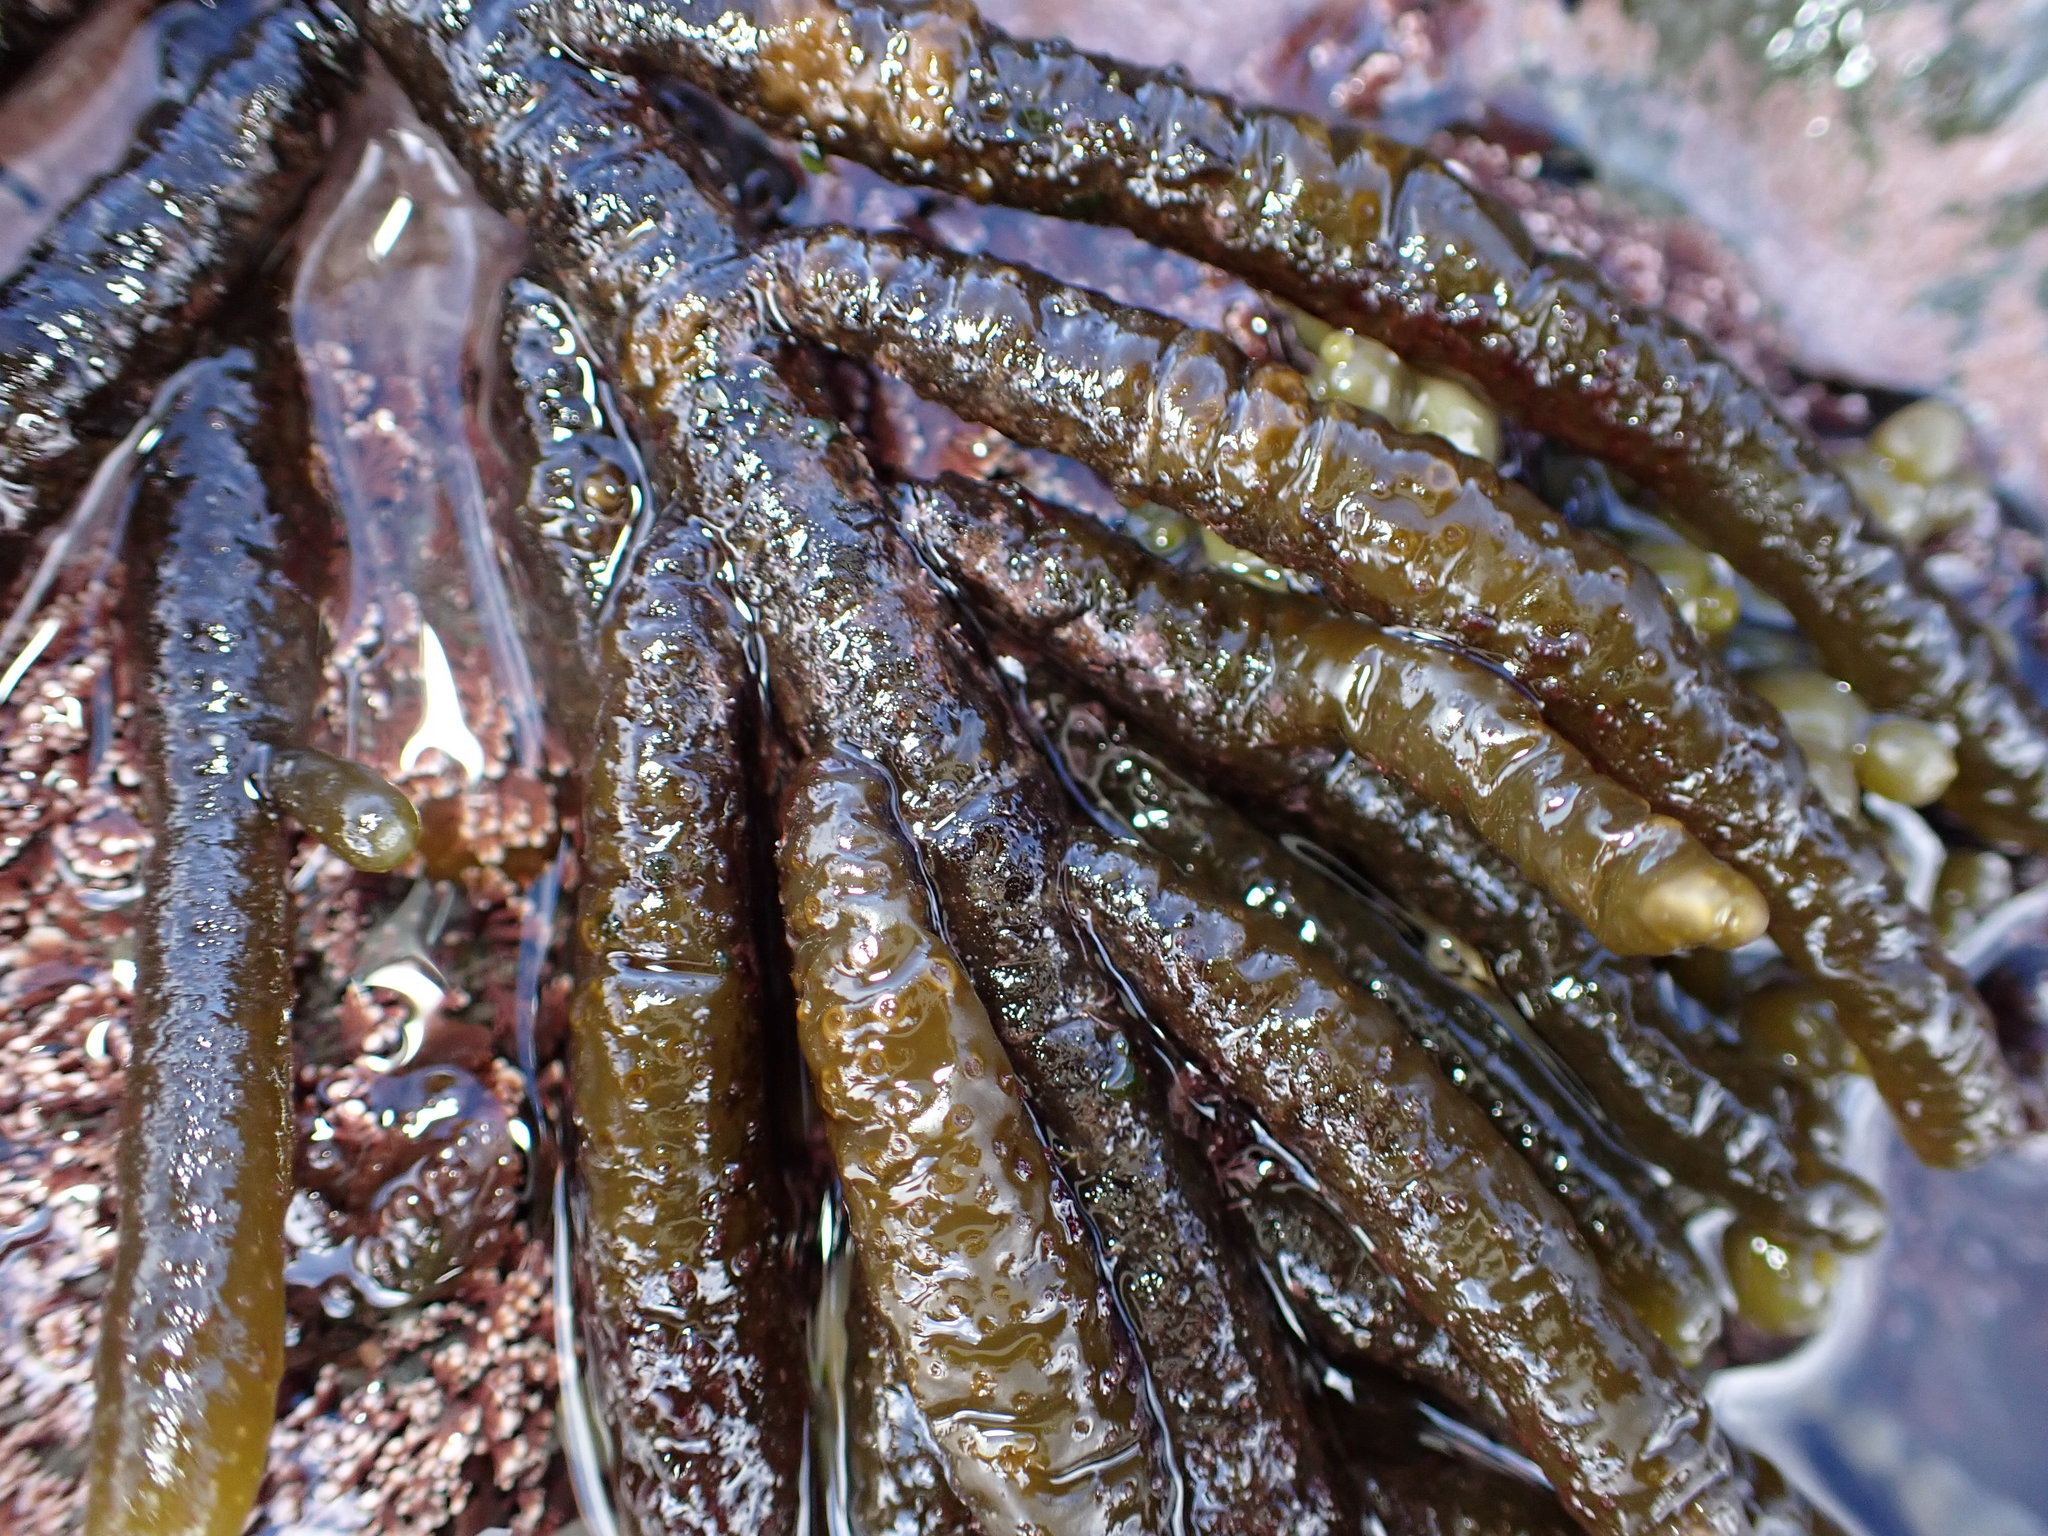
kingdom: Chromista
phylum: Ochrophyta
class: Phaeophyceae
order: Scytothamnales
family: Splachnidiaceae
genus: Splachnidium
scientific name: Splachnidium rugosum
